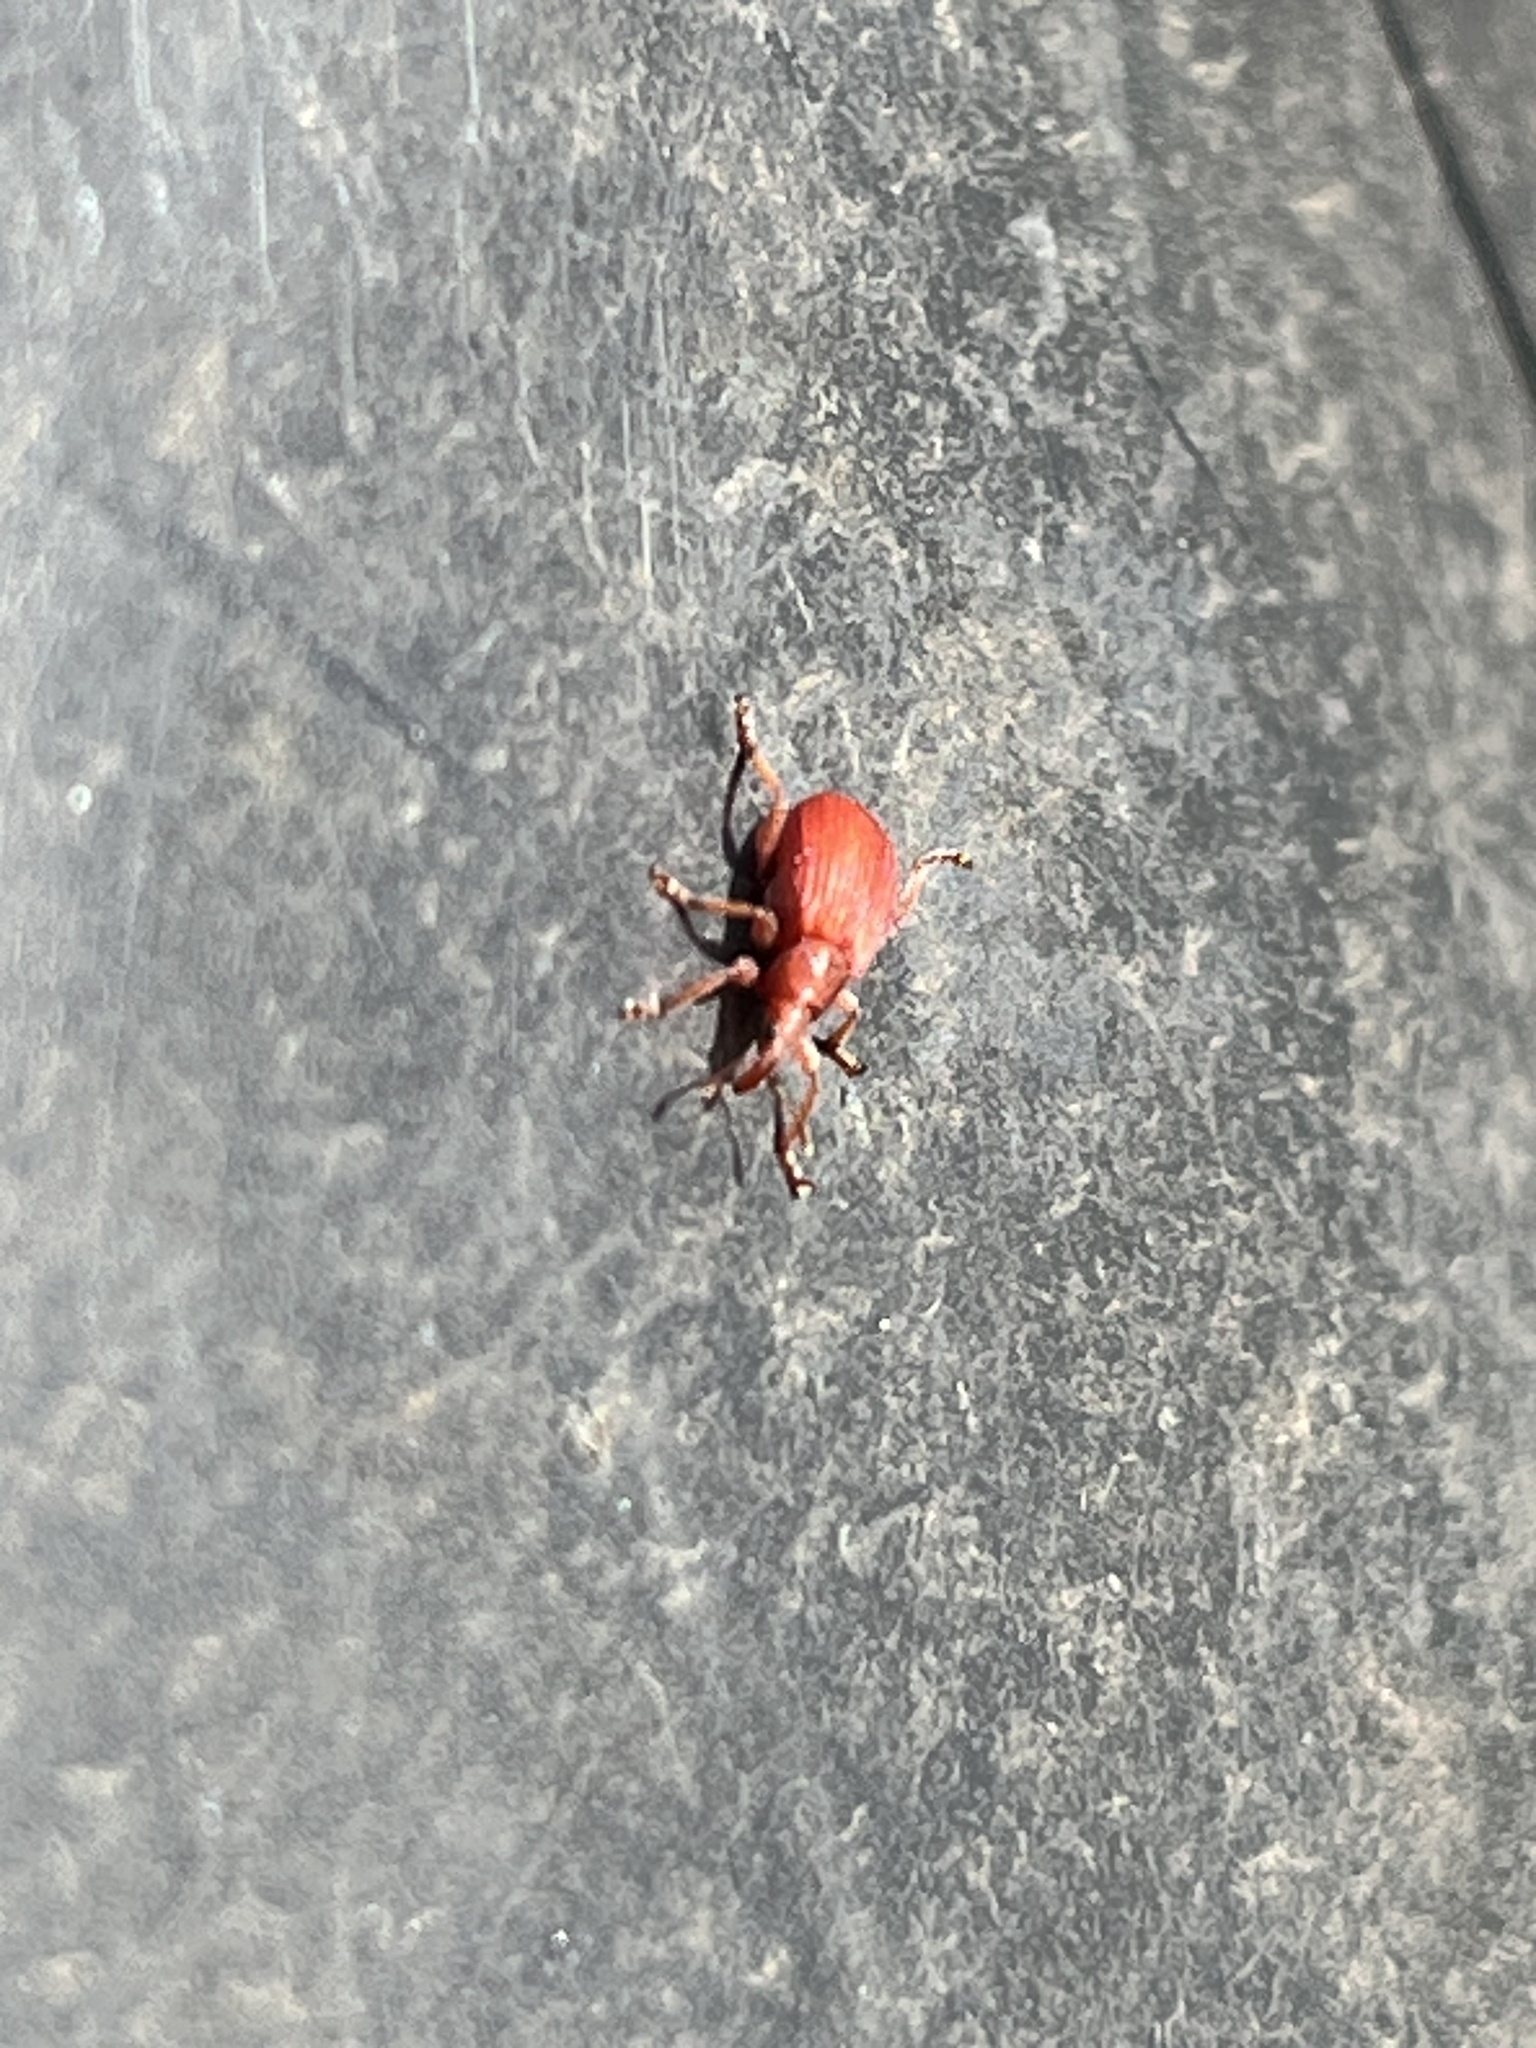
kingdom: Animalia
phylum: Arthropoda
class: Insecta
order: Coleoptera
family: Apionidae
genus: Apion
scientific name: Apion frumentarium
